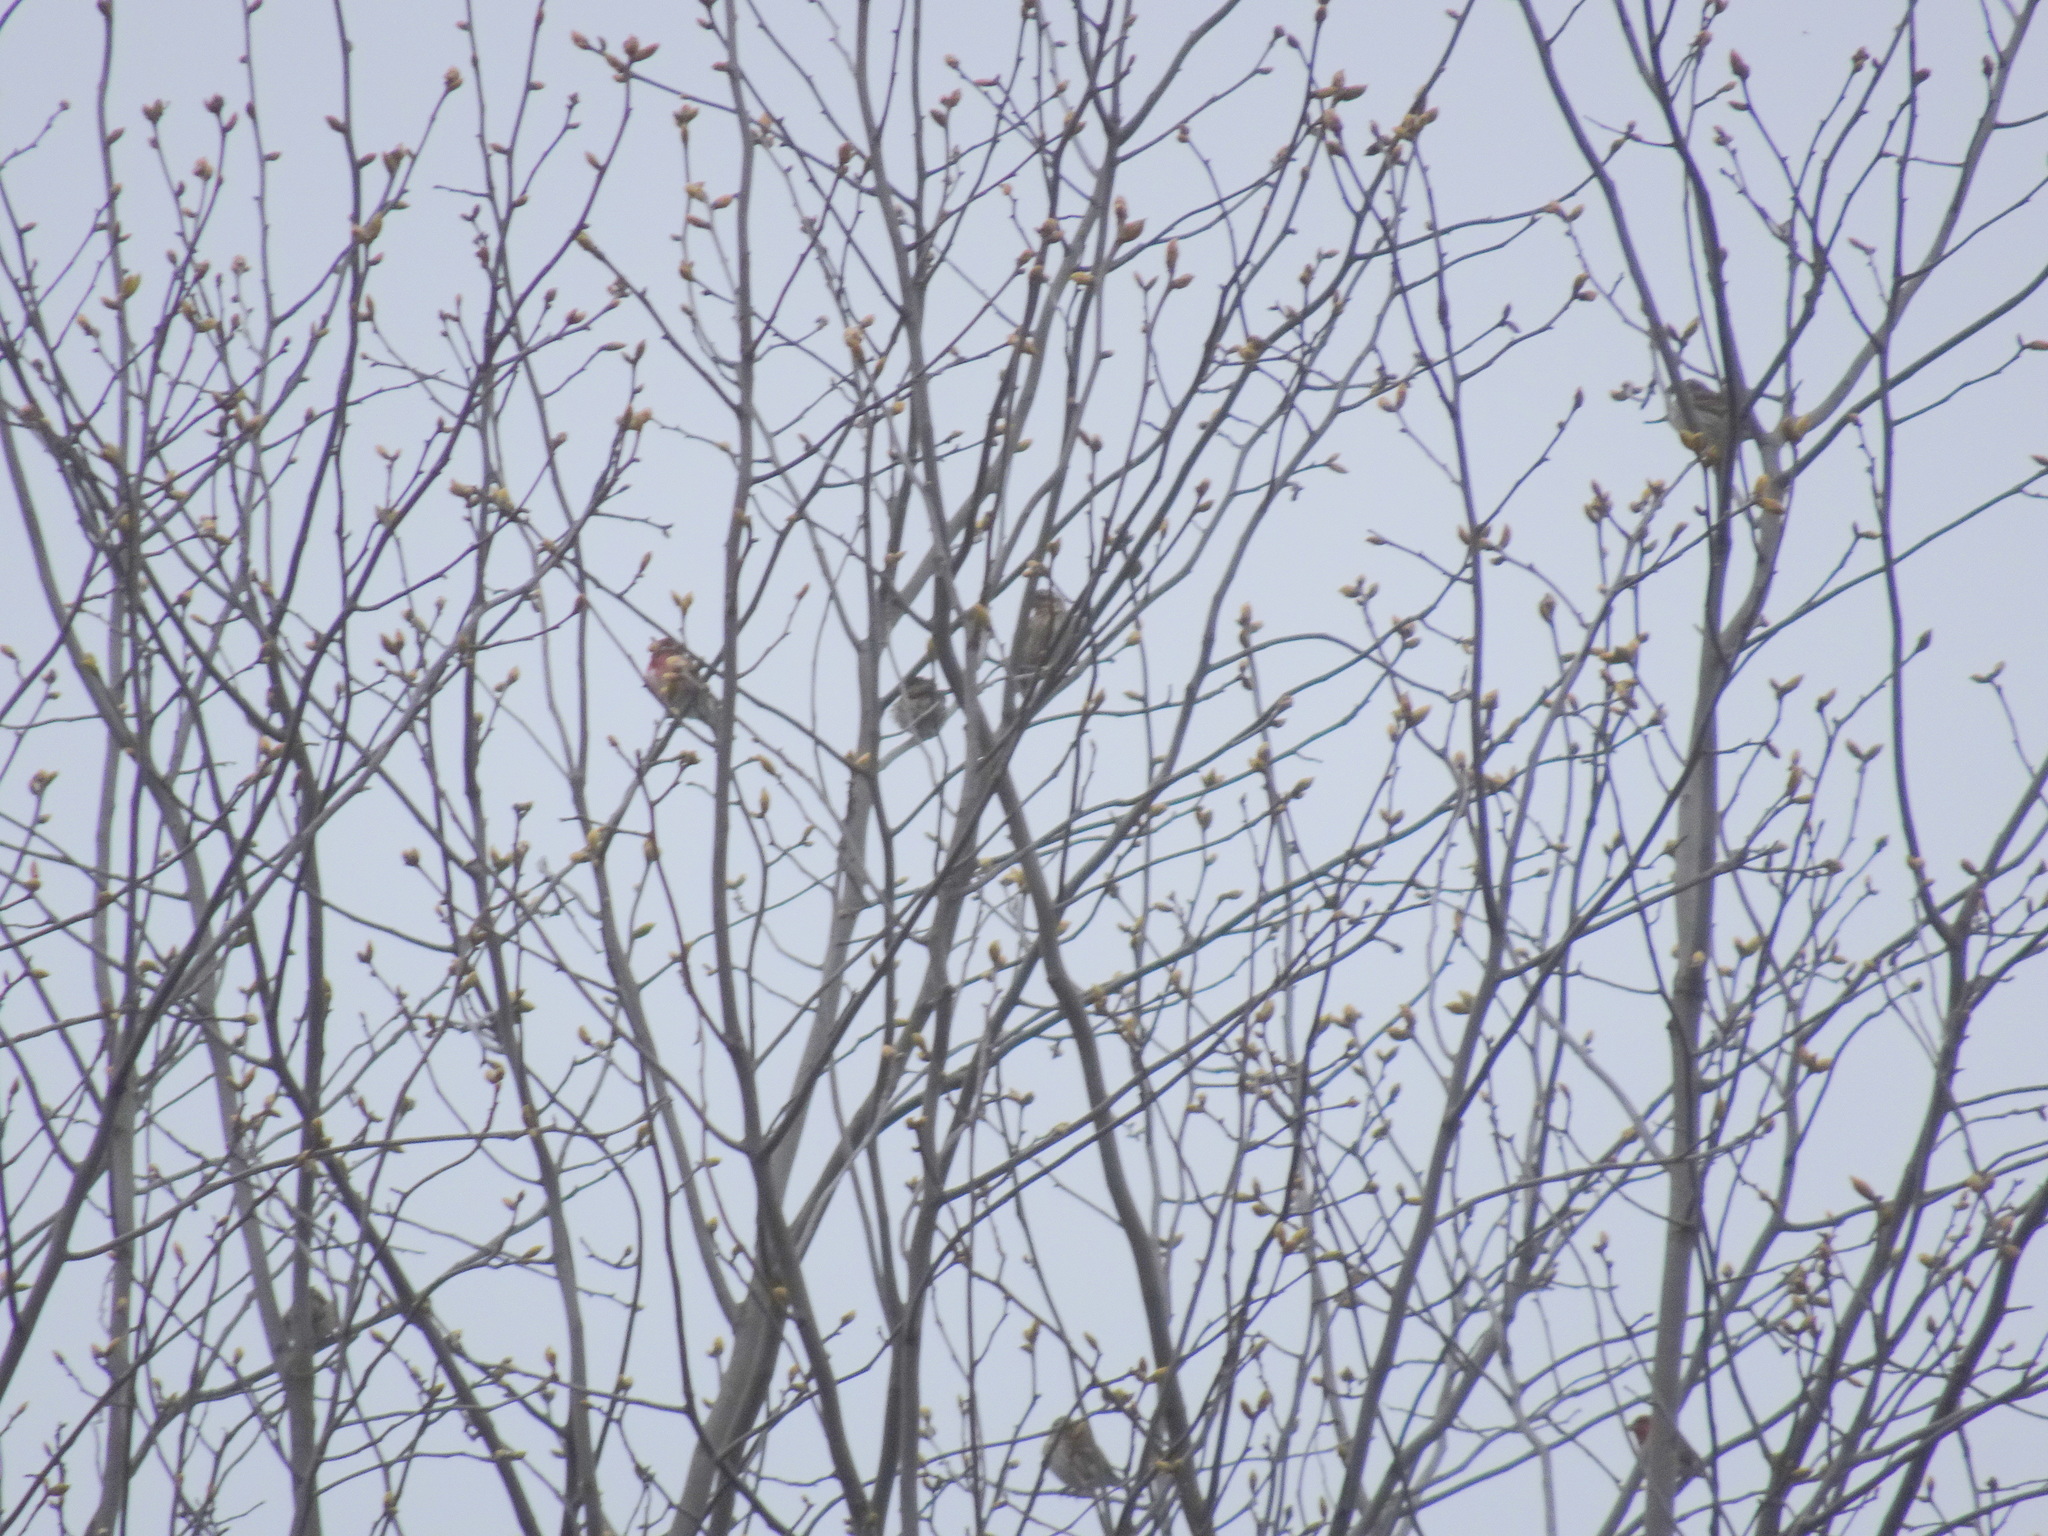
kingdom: Animalia
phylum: Chordata
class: Aves
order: Passeriformes
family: Fringillidae
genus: Haemorhous
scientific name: Haemorhous purpureus
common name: Purple finch
